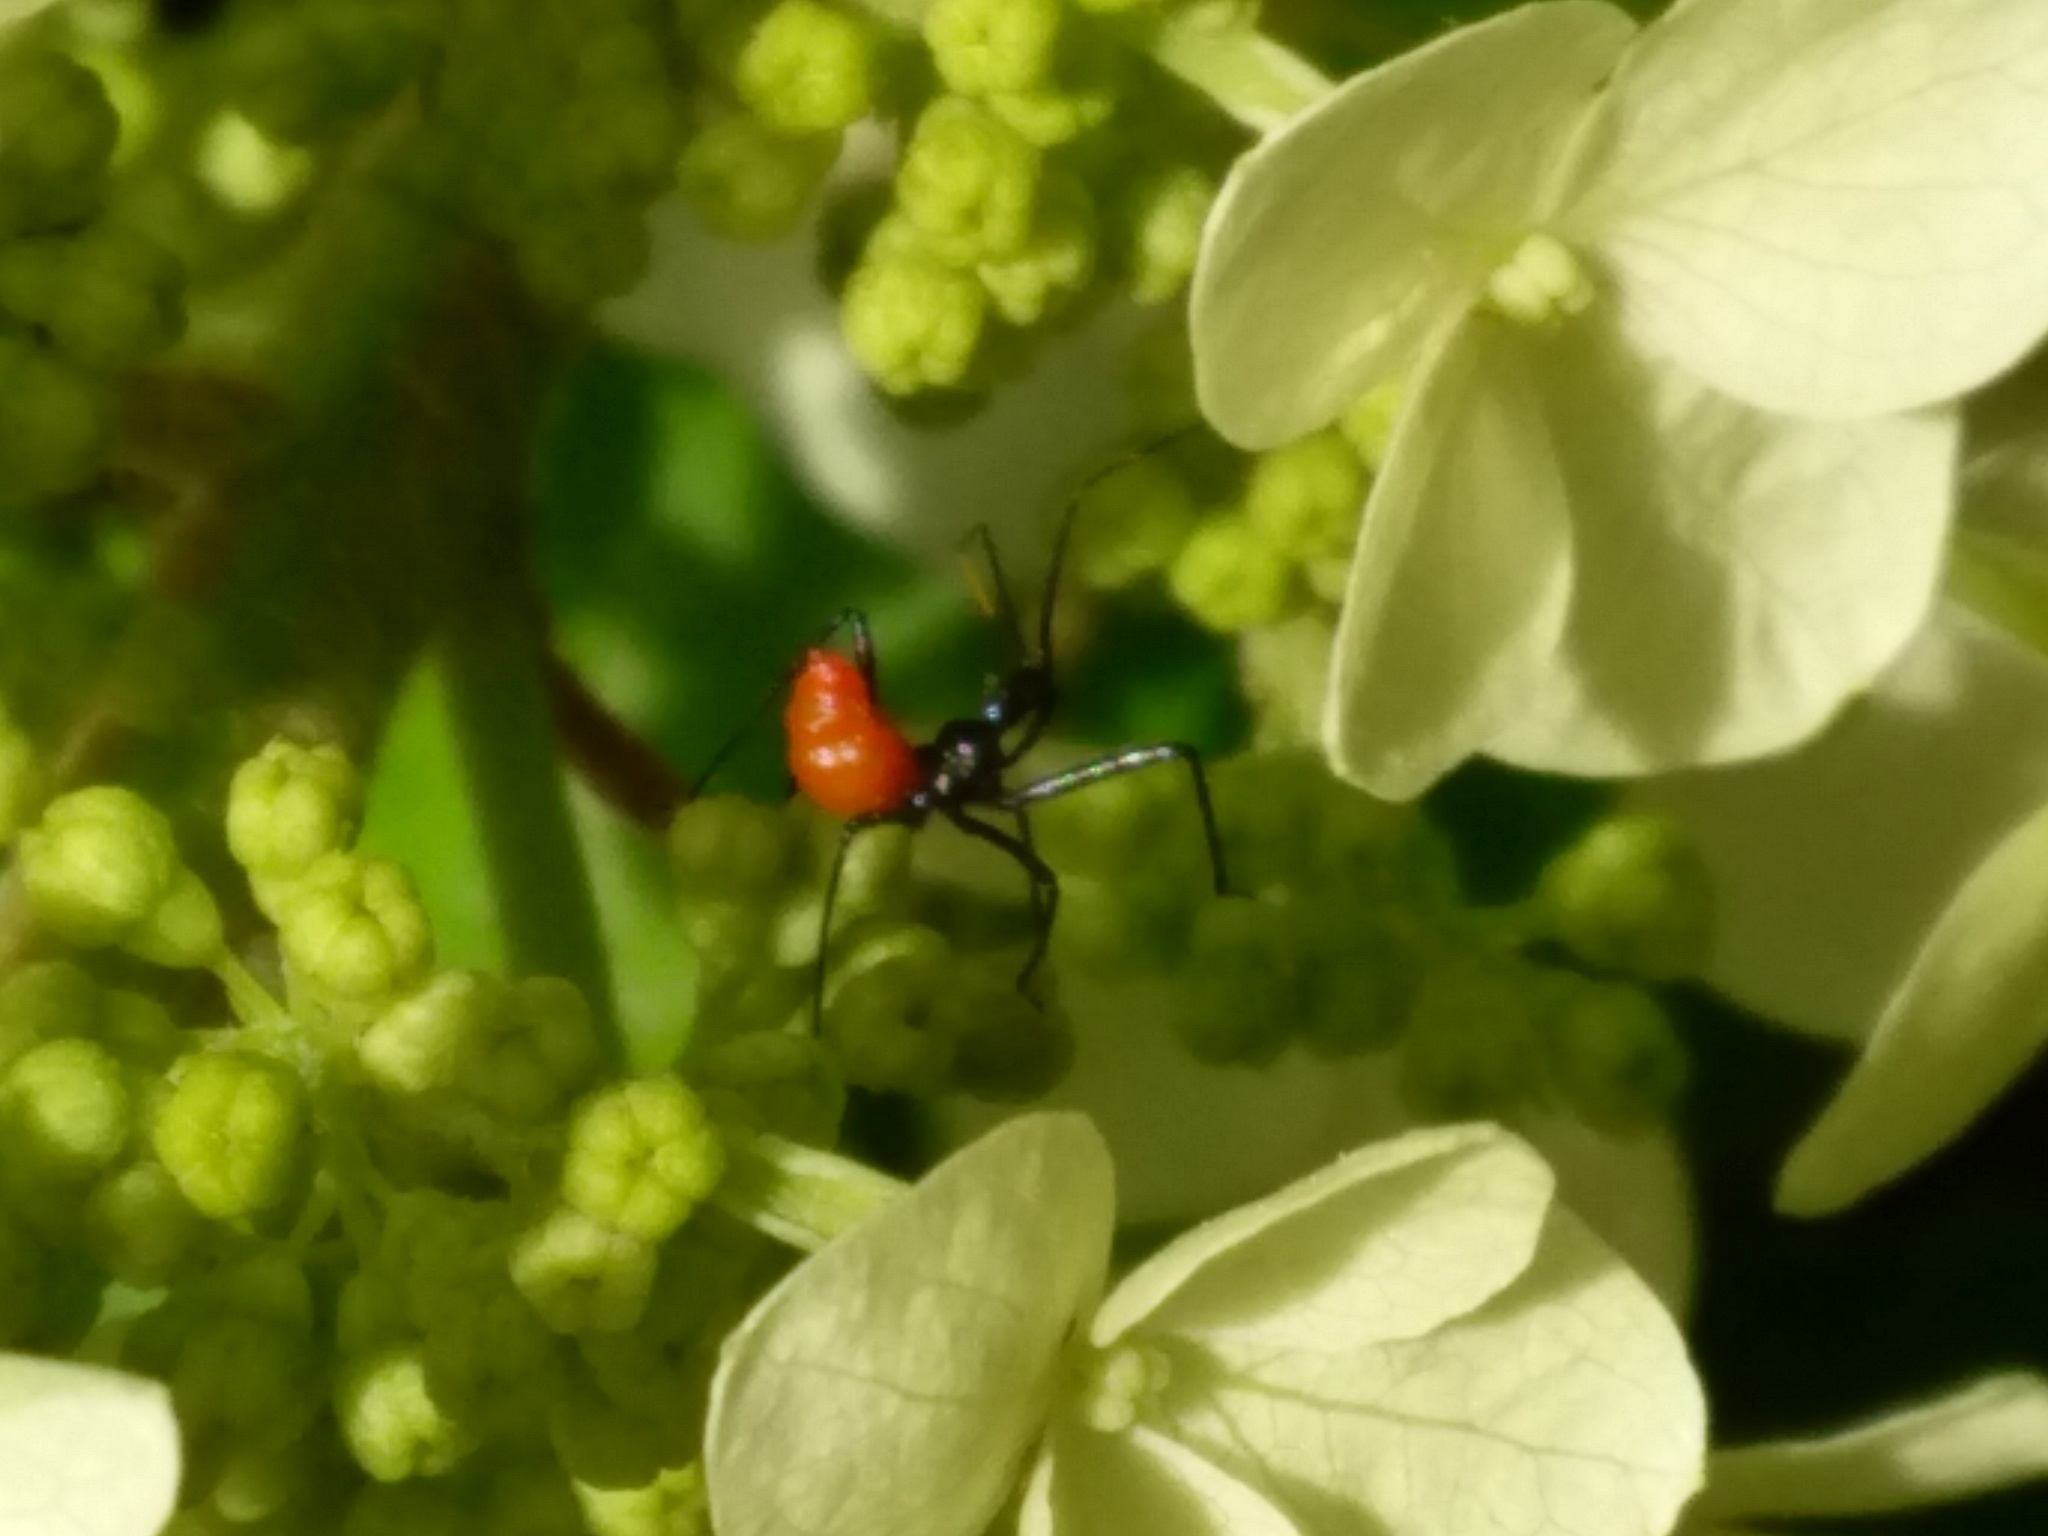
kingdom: Animalia
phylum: Arthropoda
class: Insecta
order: Hemiptera
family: Reduviidae
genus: Arilus
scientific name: Arilus cristatus
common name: North american wheel bug
